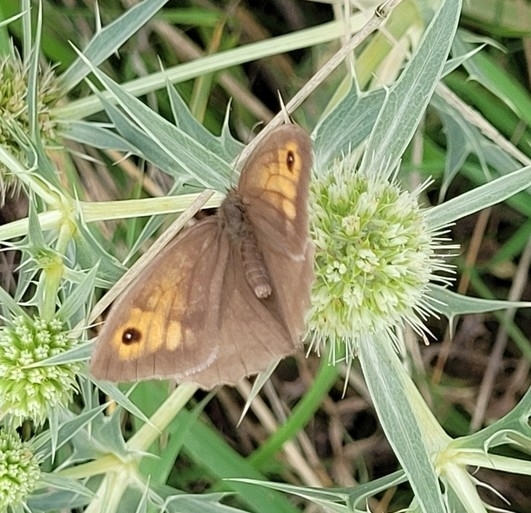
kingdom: Animalia
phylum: Arthropoda
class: Insecta
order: Lepidoptera
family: Nymphalidae
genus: Maniola
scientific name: Maniola jurtina
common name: Meadow brown
